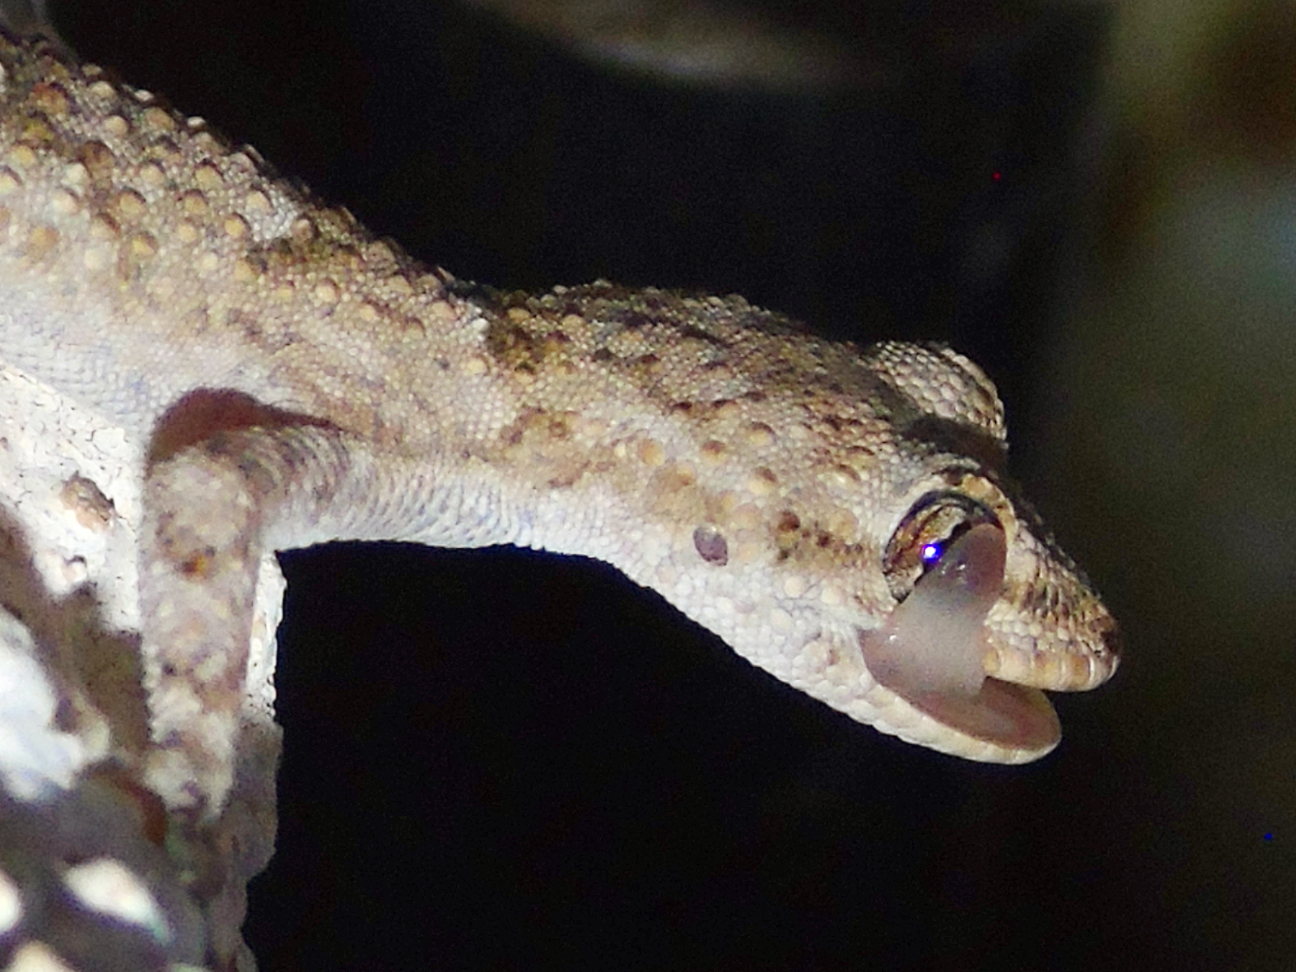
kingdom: Animalia
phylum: Chordata
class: Squamata
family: Gekkonidae
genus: Mediodactylus
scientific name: Mediodactylus kotschyi
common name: Kotschy's gecko
